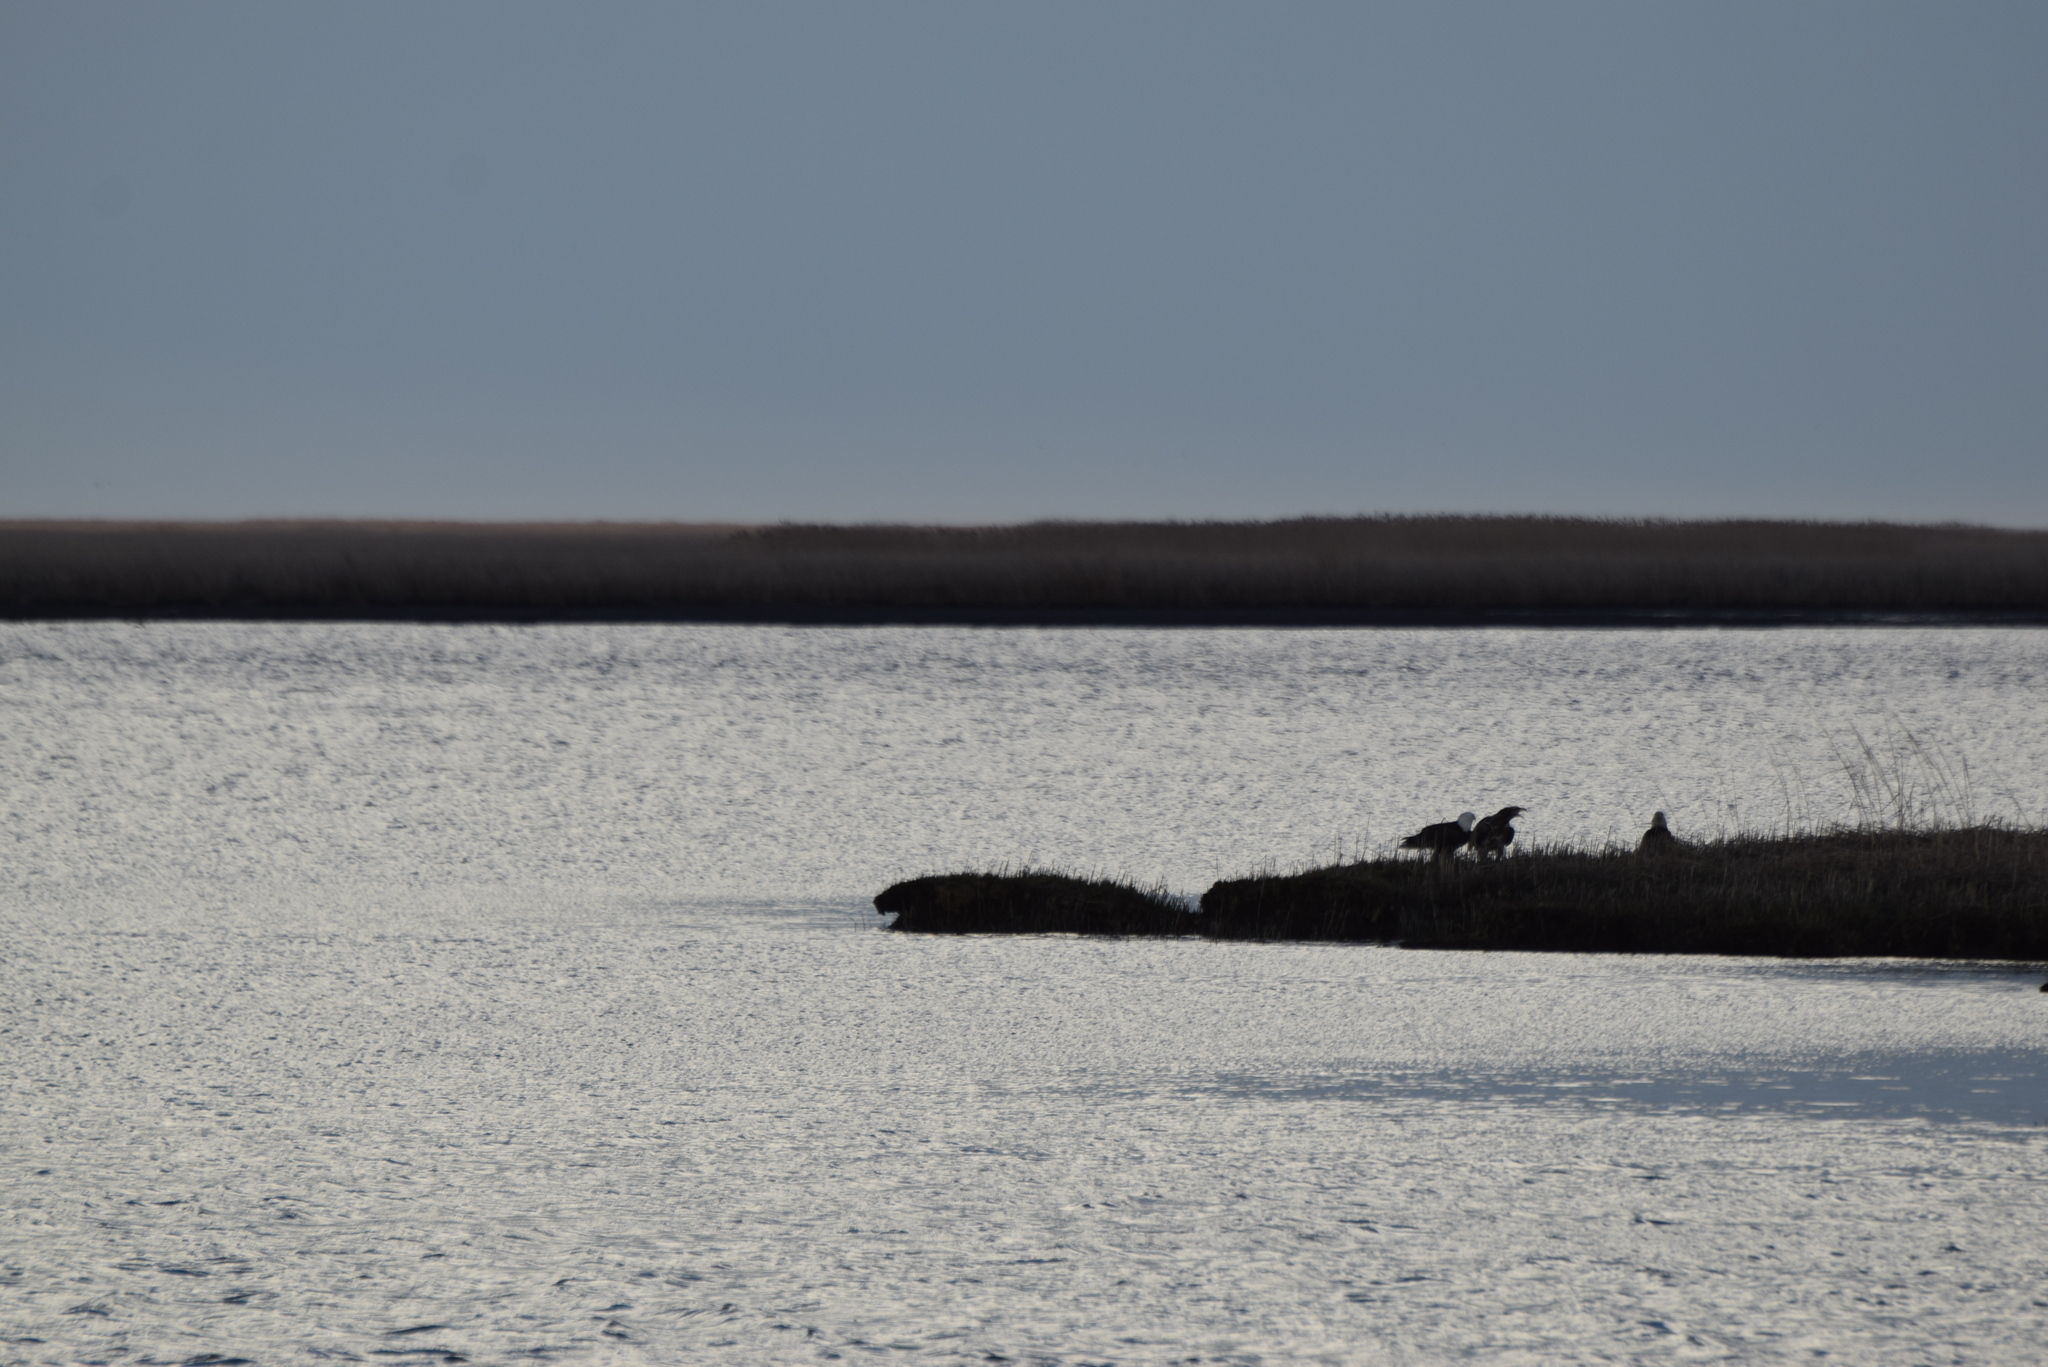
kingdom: Animalia
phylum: Chordata
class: Aves
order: Accipitriformes
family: Accipitridae
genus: Haliaeetus
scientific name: Haliaeetus leucocephalus
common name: Bald eagle
